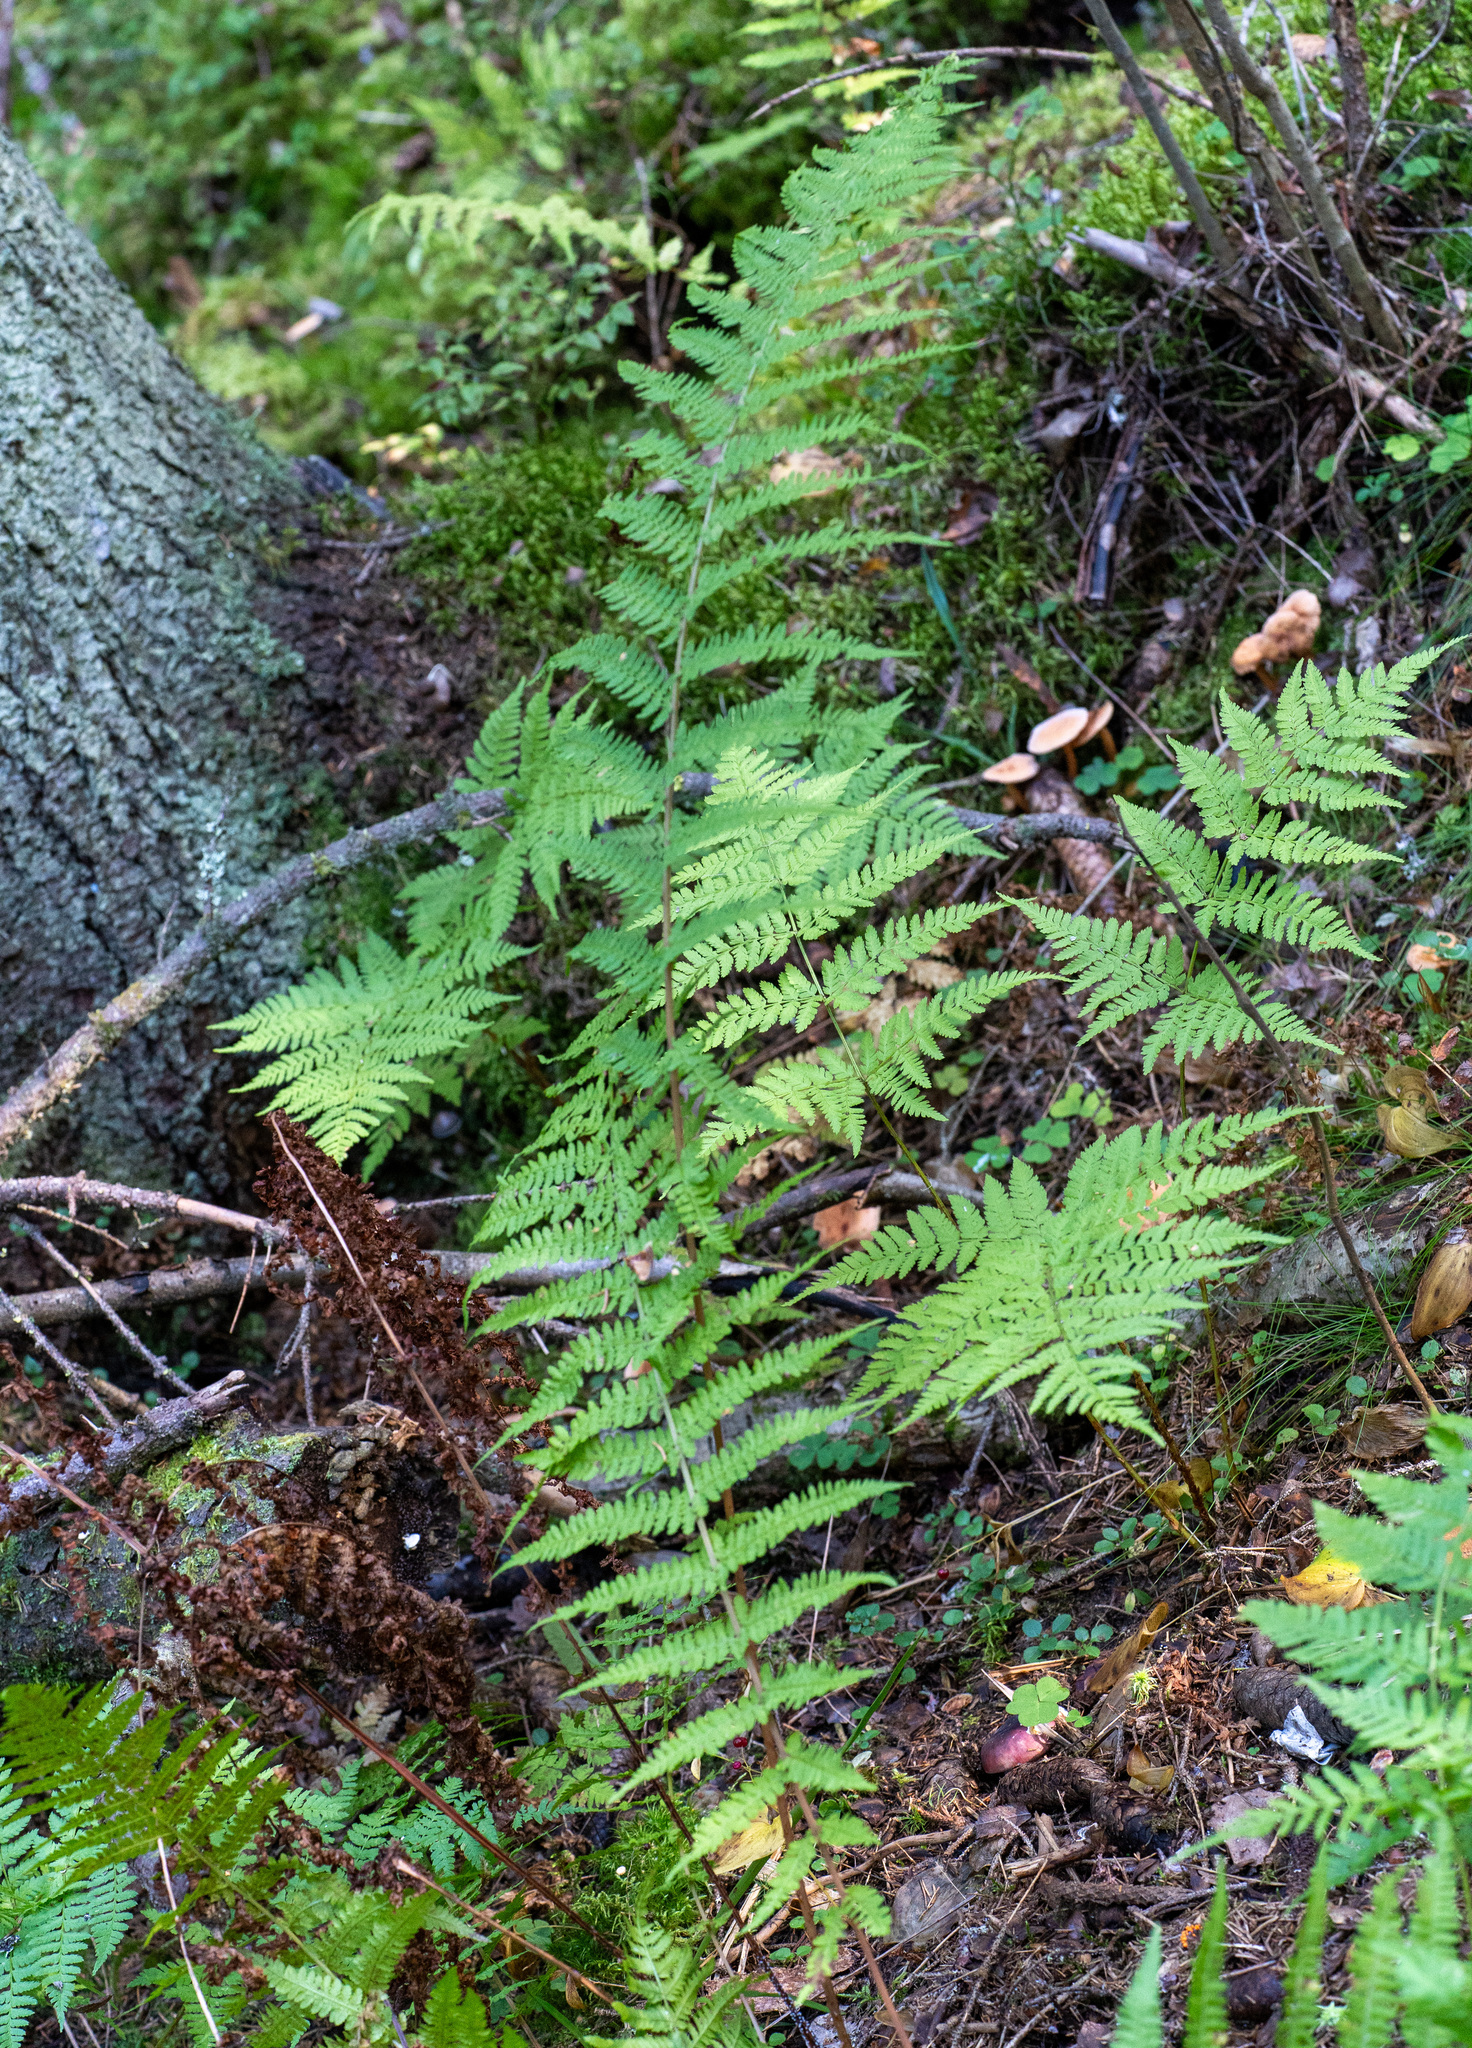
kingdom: Plantae
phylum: Tracheophyta
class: Polypodiopsida
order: Polypodiales
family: Athyriaceae
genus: Athyrium
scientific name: Athyrium filix-femina
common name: Lady fern
